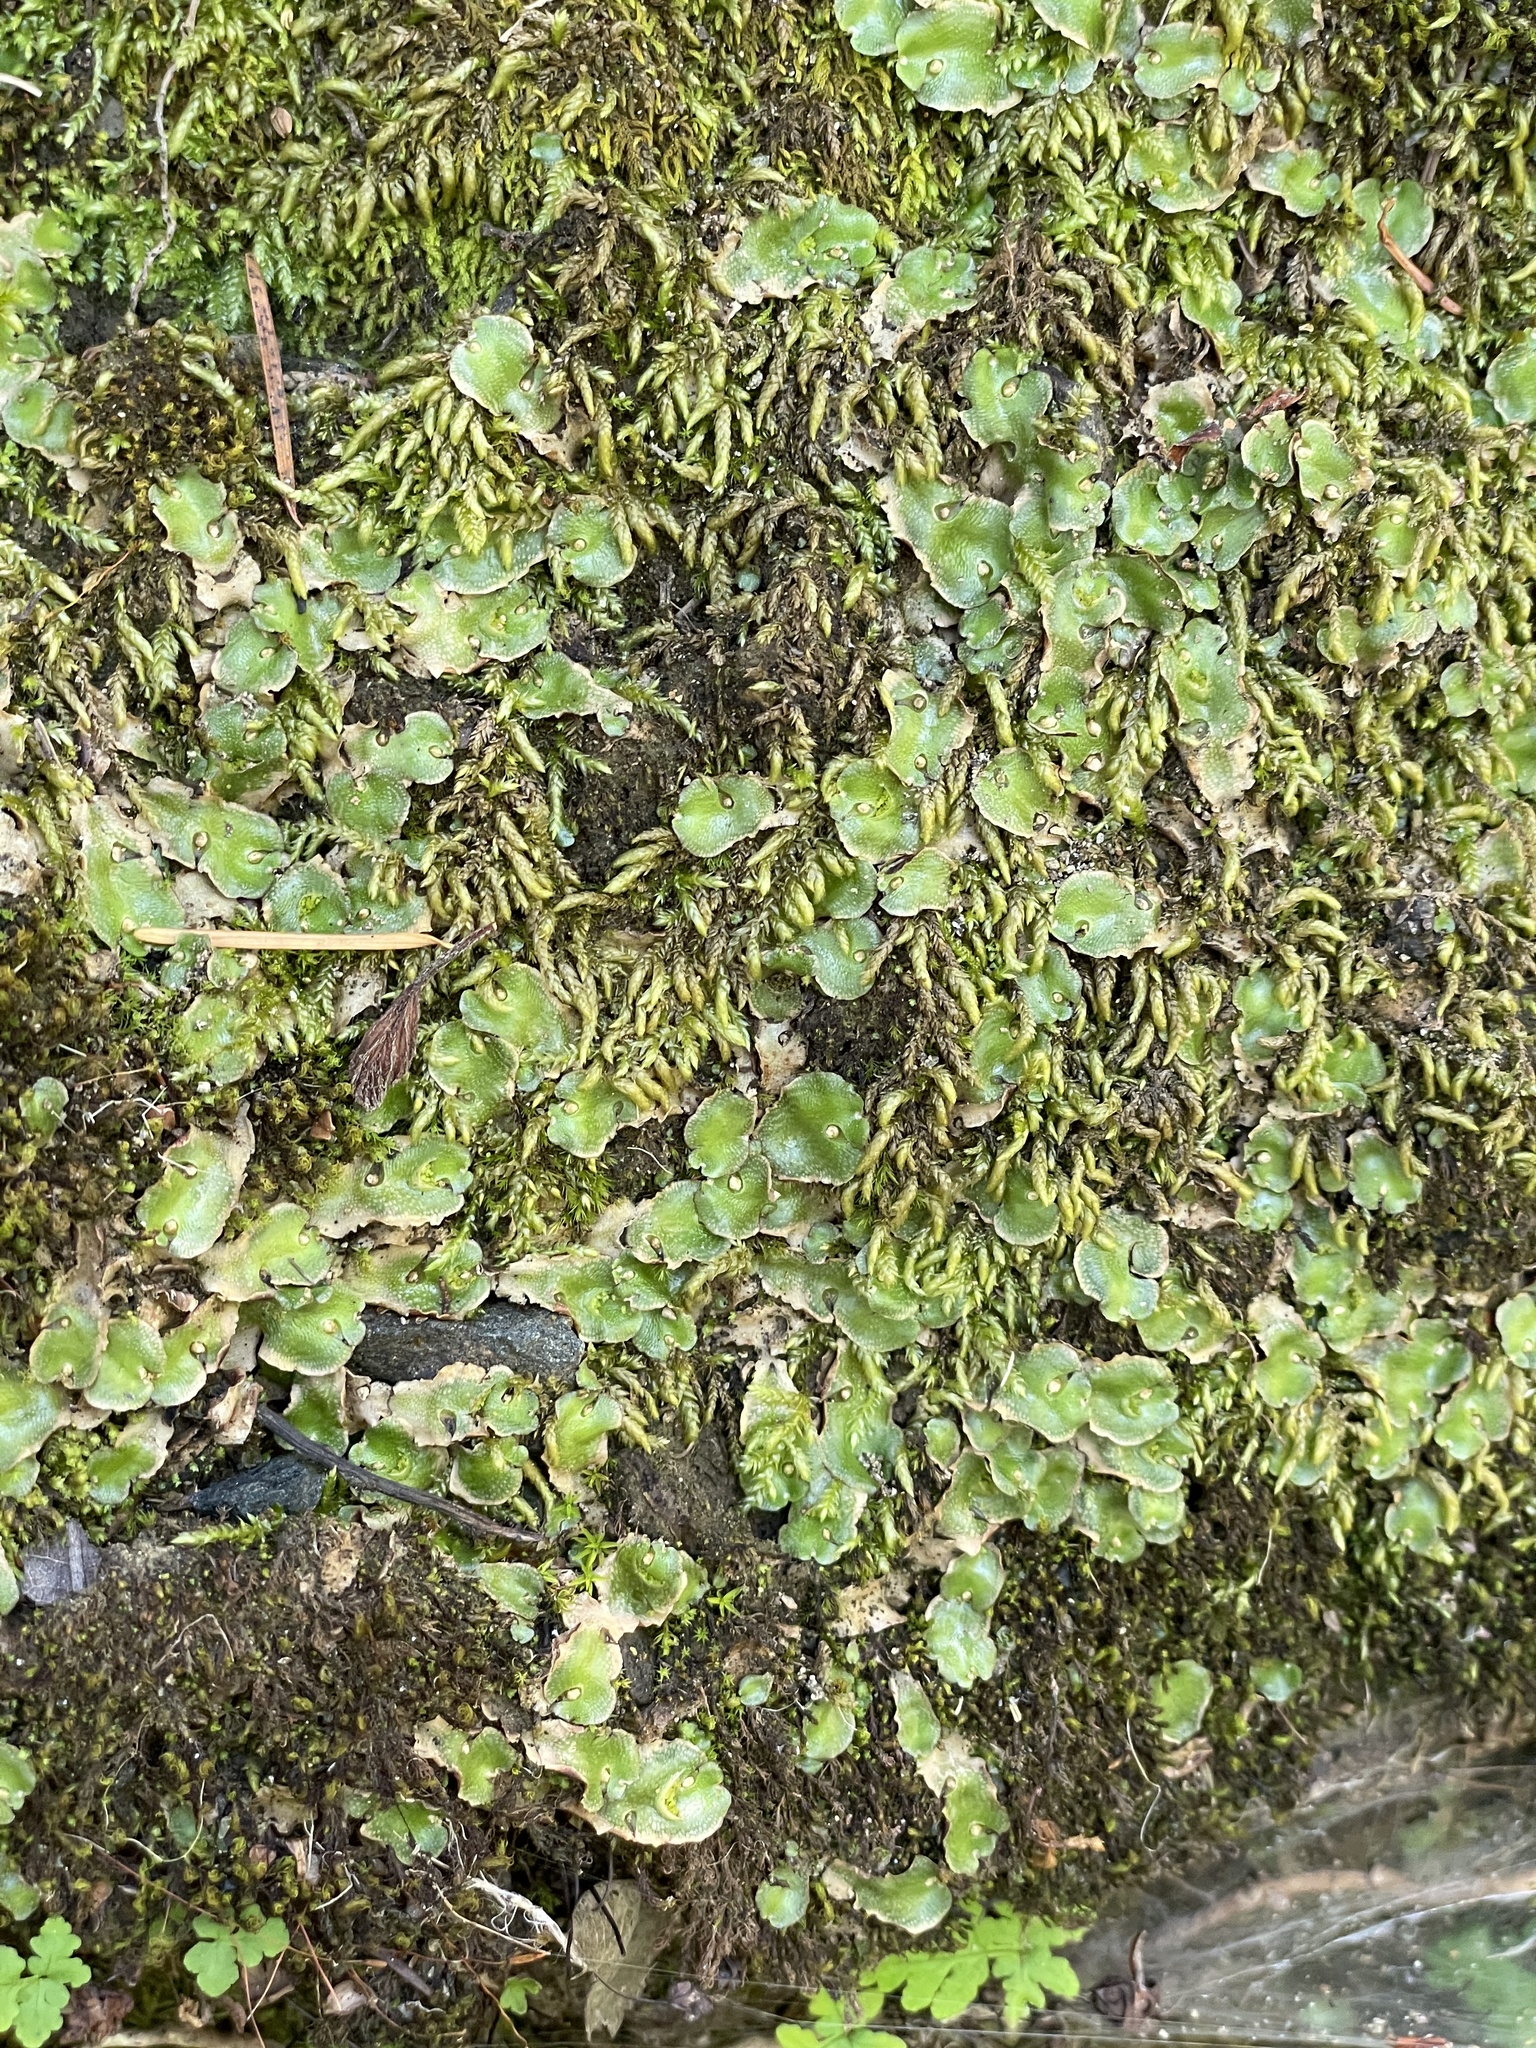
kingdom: Plantae
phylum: Marchantiophyta
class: Marchantiopsida
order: Lunulariales
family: Lunulariaceae
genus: Lunularia
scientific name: Lunularia cruciata
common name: Crescent-cup liverwort
